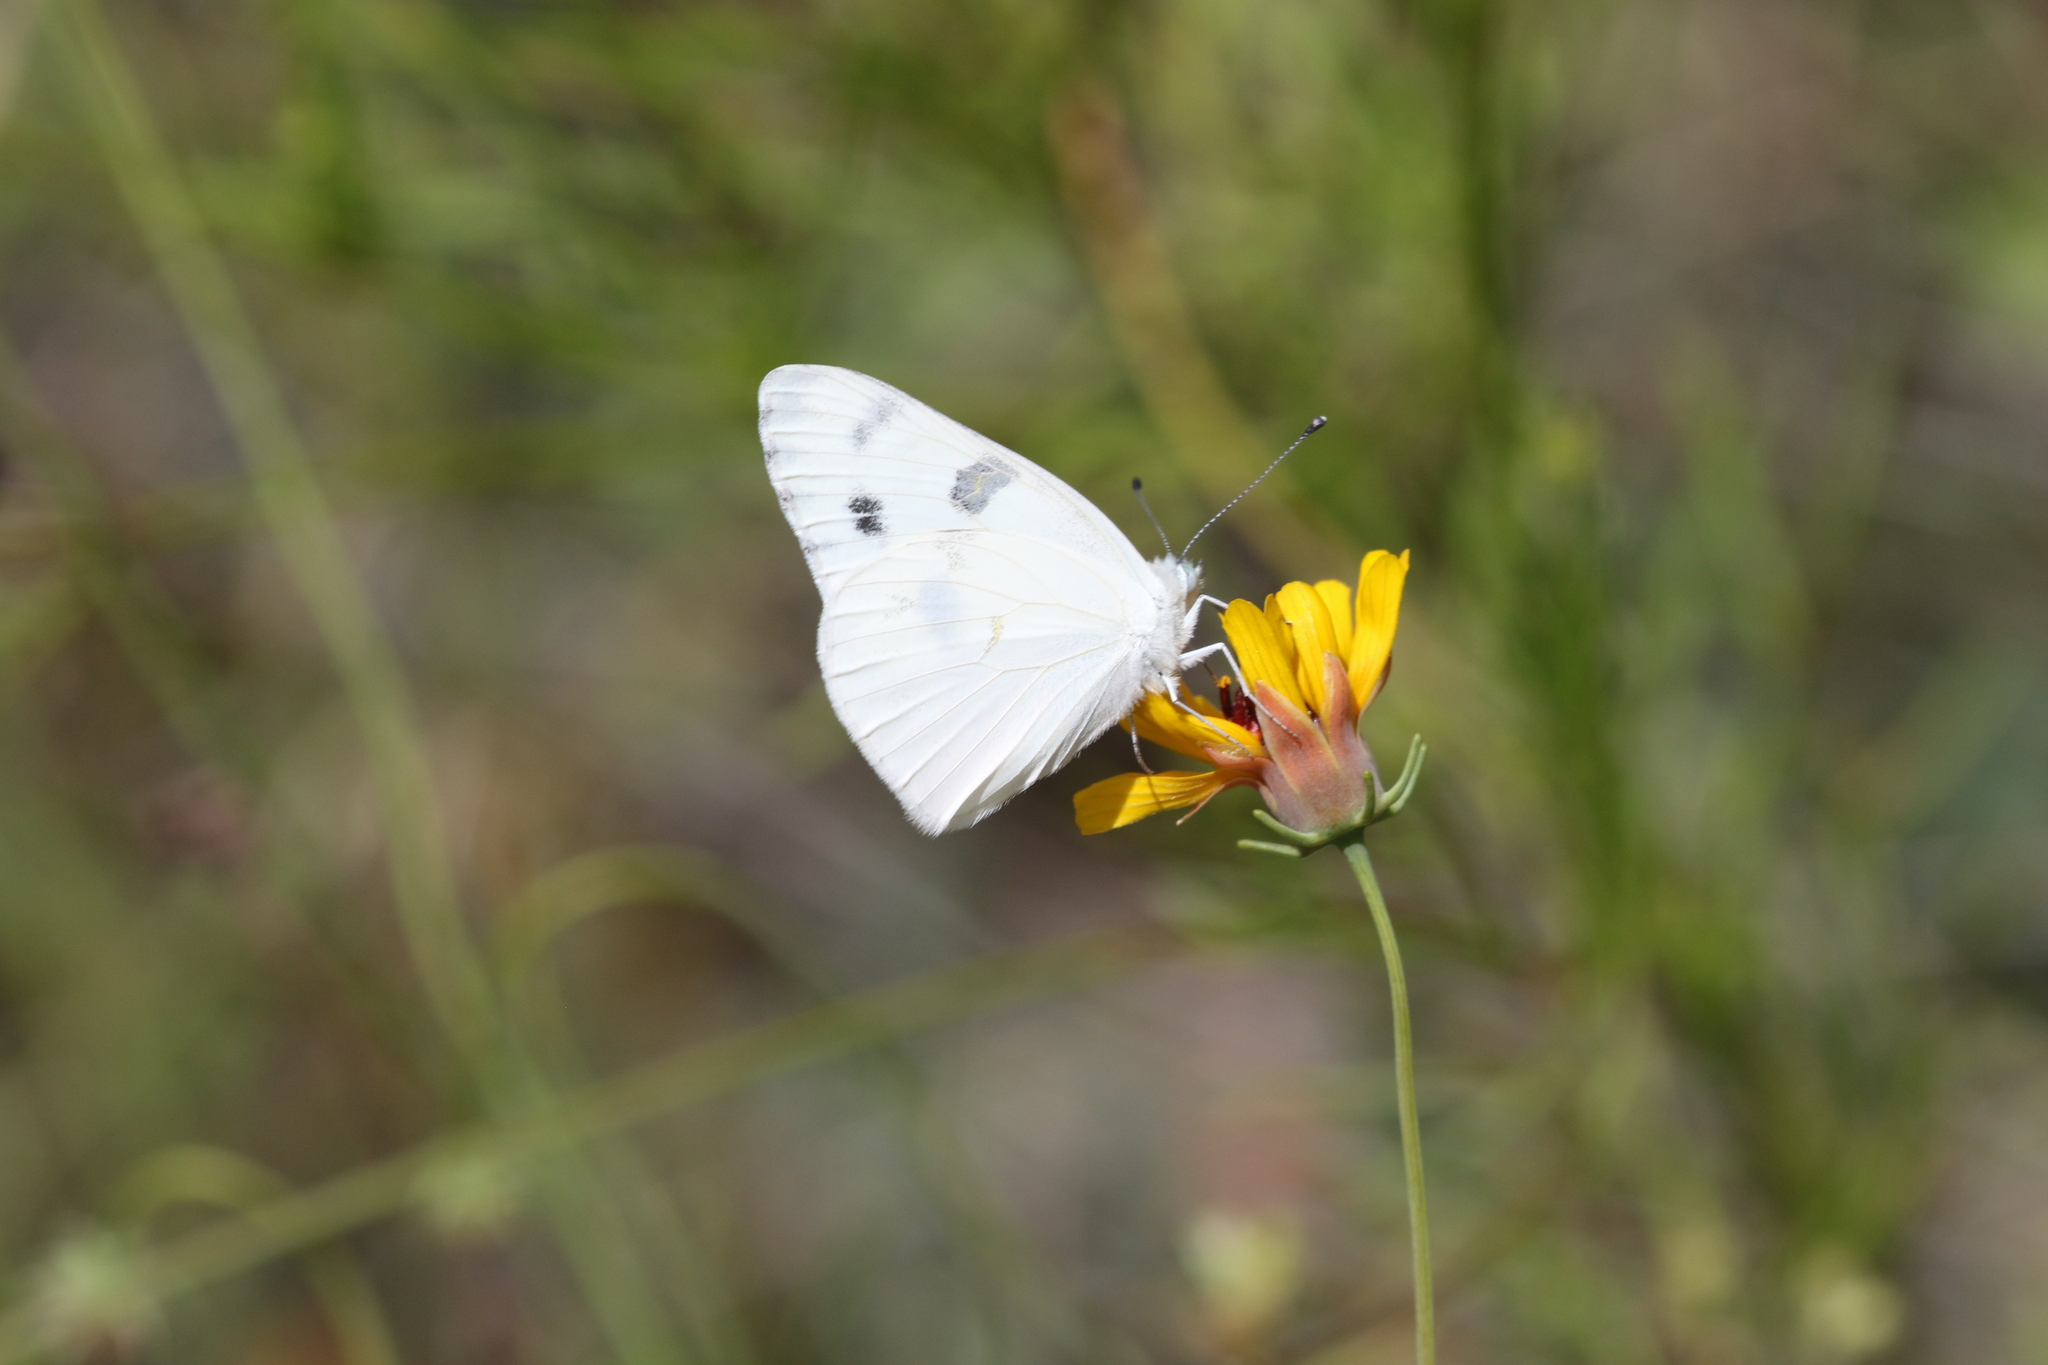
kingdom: Animalia
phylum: Arthropoda
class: Insecta
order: Lepidoptera
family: Pieridae
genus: Pontia
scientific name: Pontia protodice
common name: Checkered white
